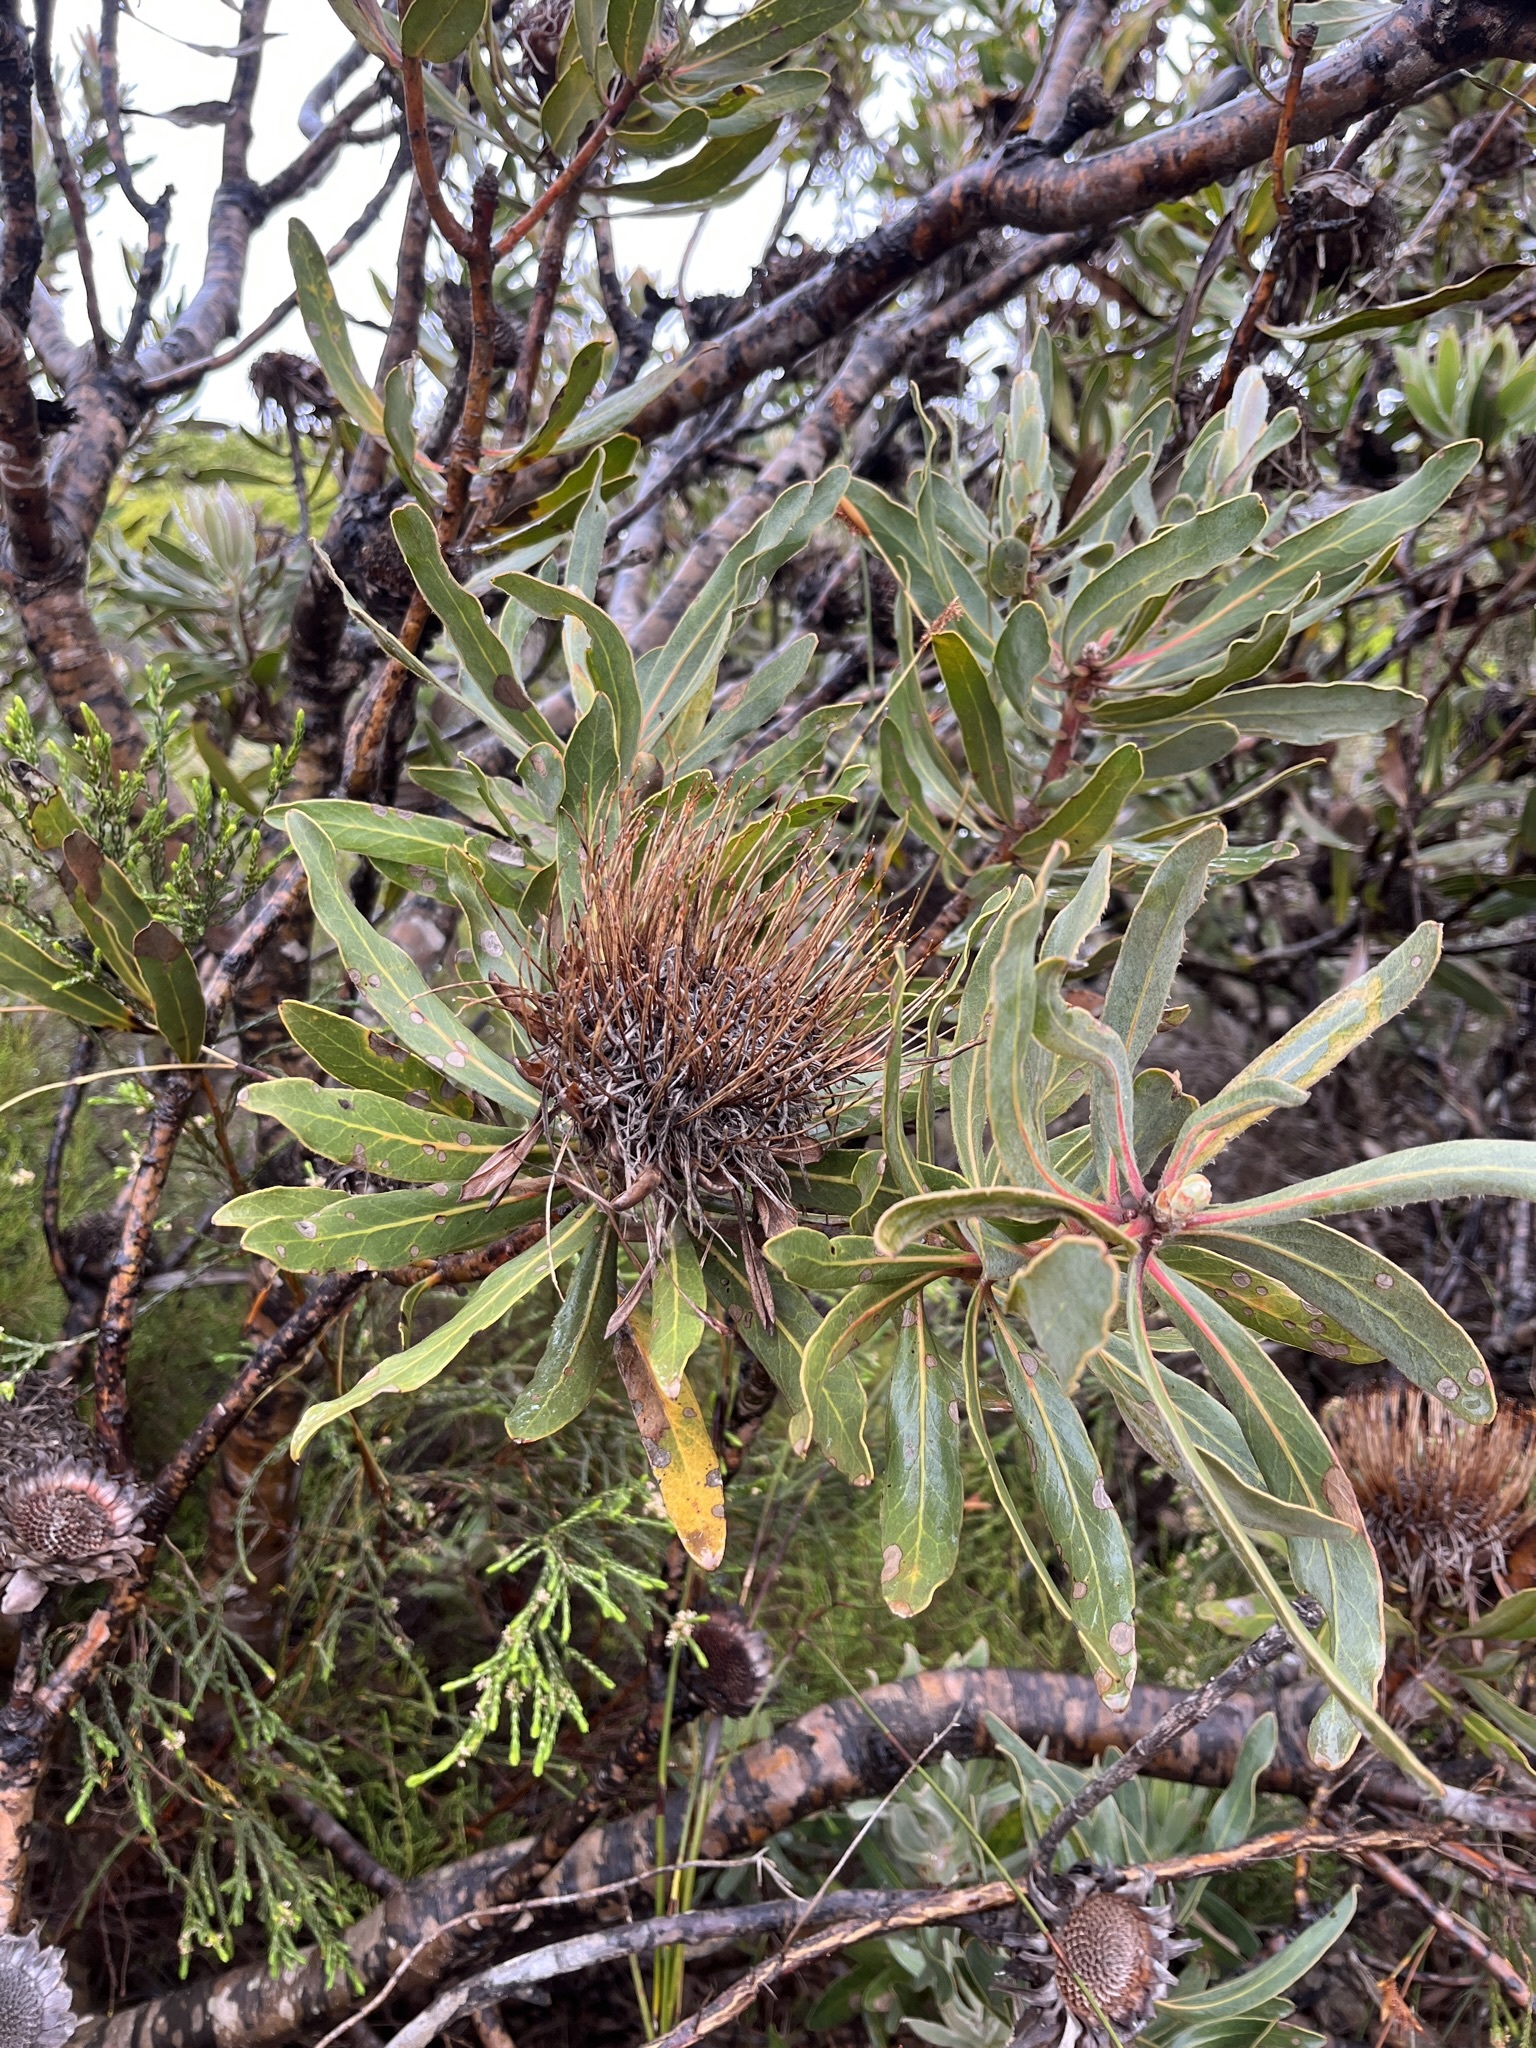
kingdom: Plantae
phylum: Tracheophyta
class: Magnoliopsida
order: Proteales
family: Proteaceae
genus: Protea
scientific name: Protea susannae
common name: Foetid-leaf sugarbush
